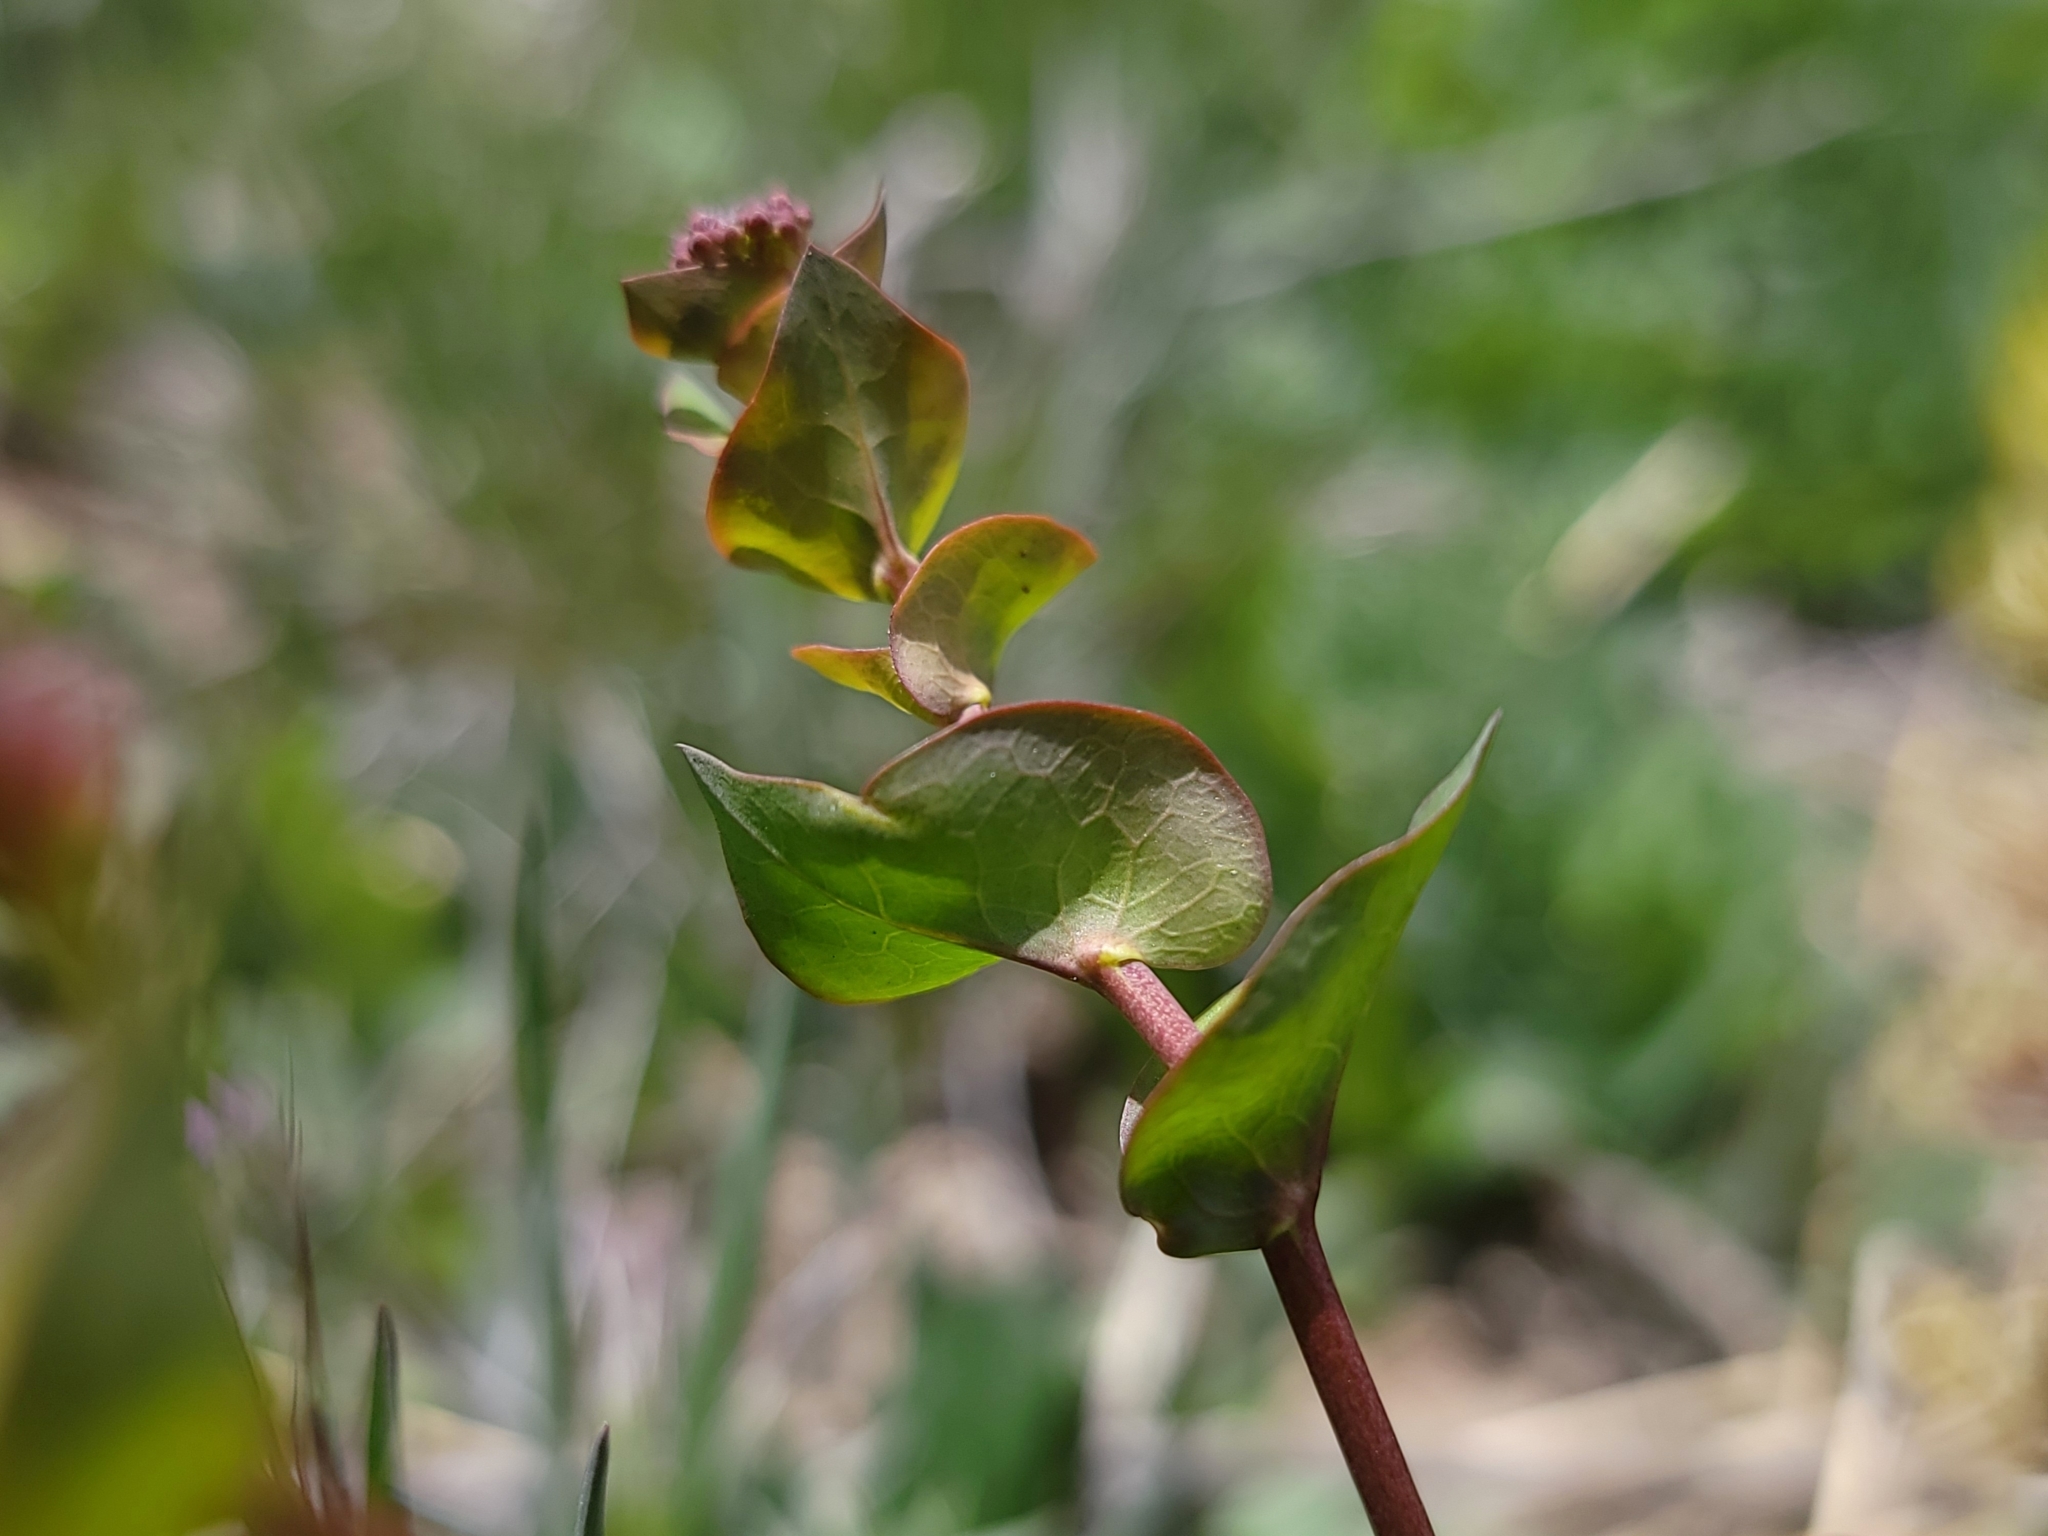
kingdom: Plantae
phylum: Tracheophyta
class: Magnoliopsida
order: Brassicales
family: Brassicaceae
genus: Lepidium
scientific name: Lepidium perfoliatum
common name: Perfoliate pepperwort
